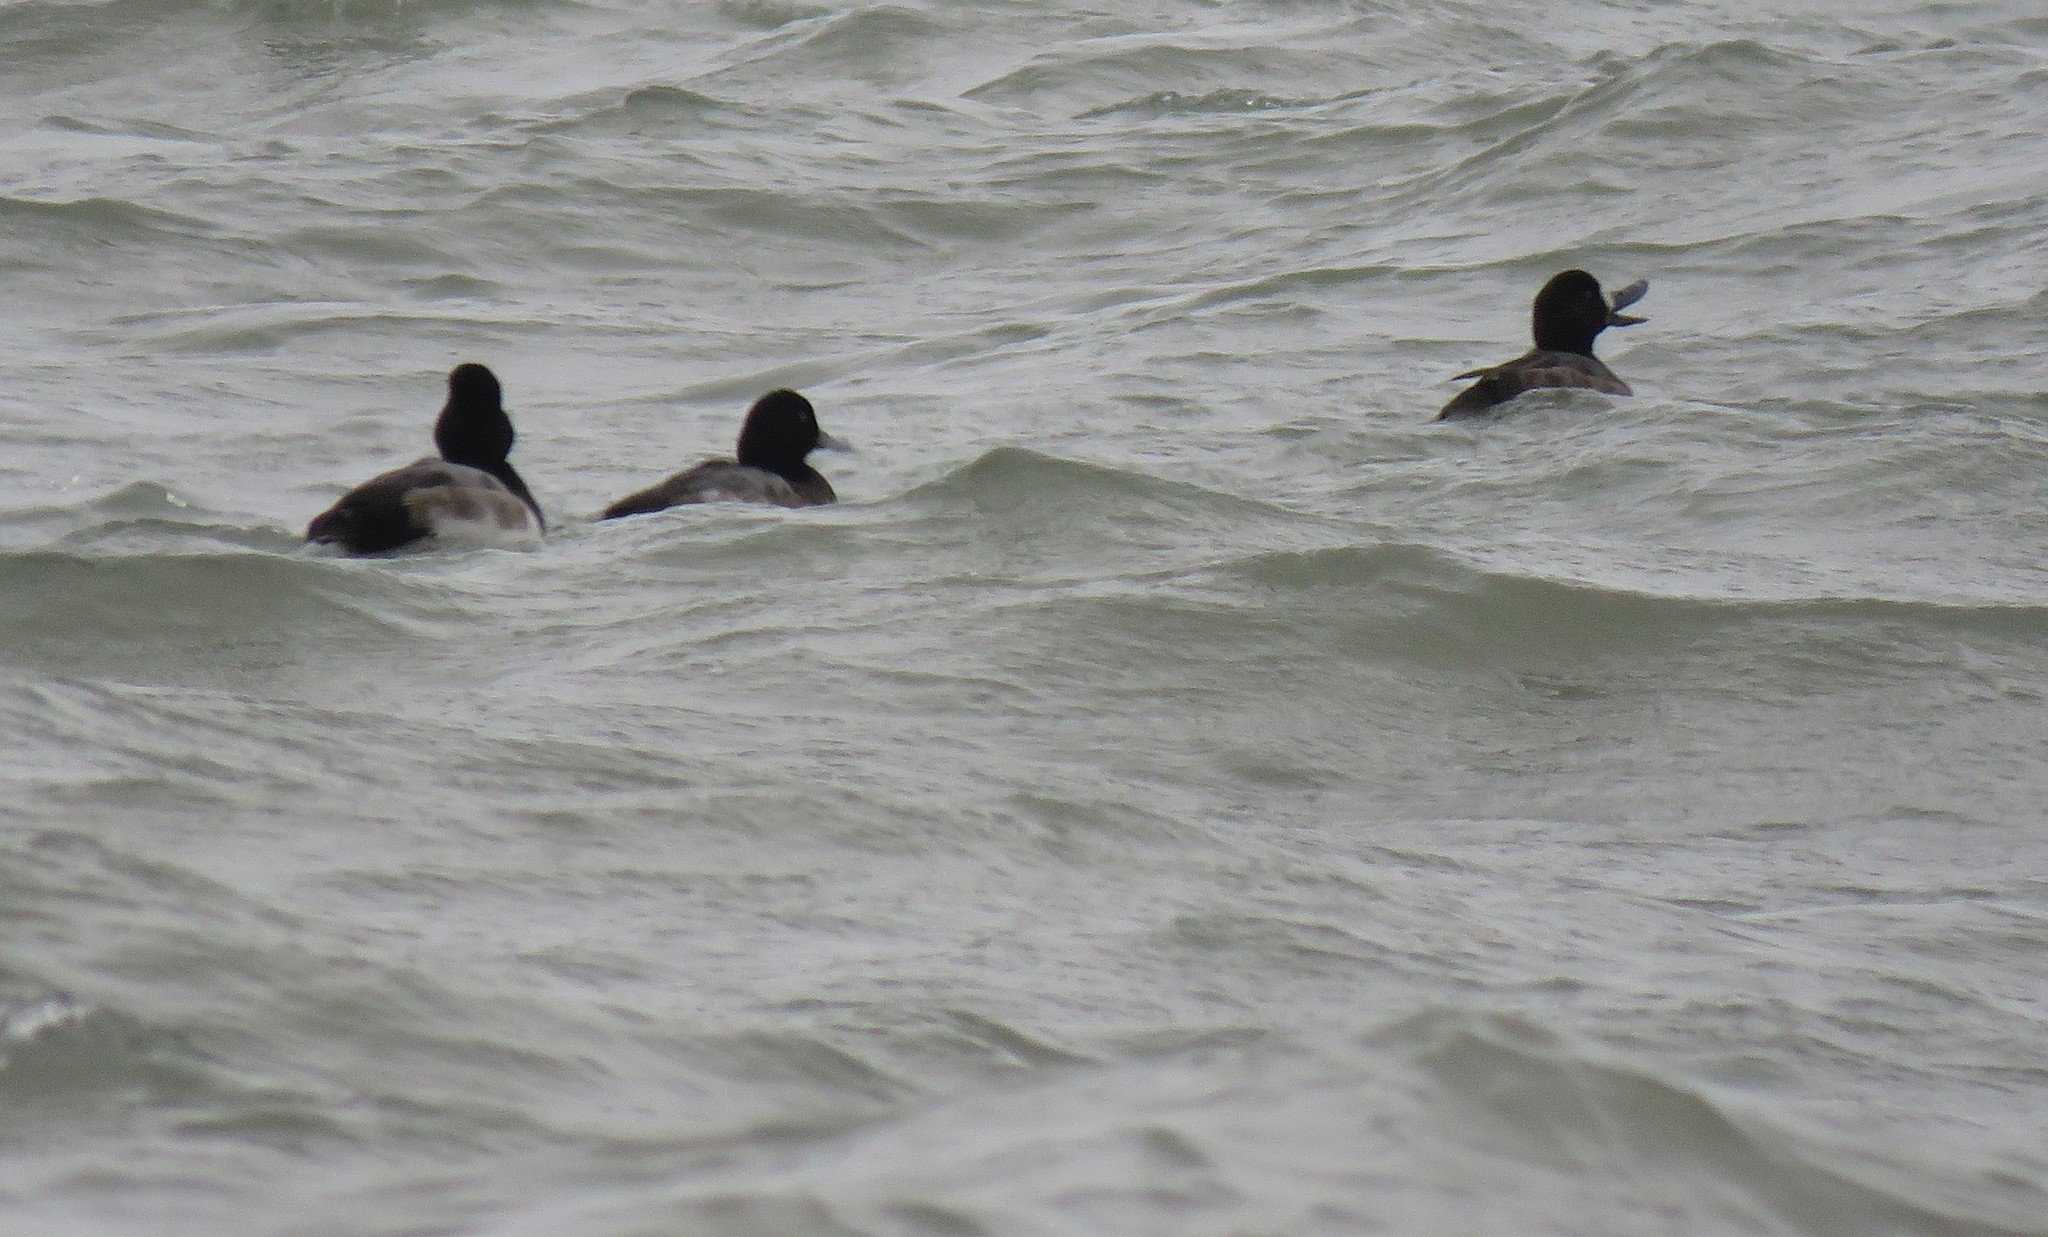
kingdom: Animalia
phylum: Chordata
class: Aves
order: Anseriformes
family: Anatidae
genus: Aythya
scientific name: Aythya marila
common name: Greater scaup
